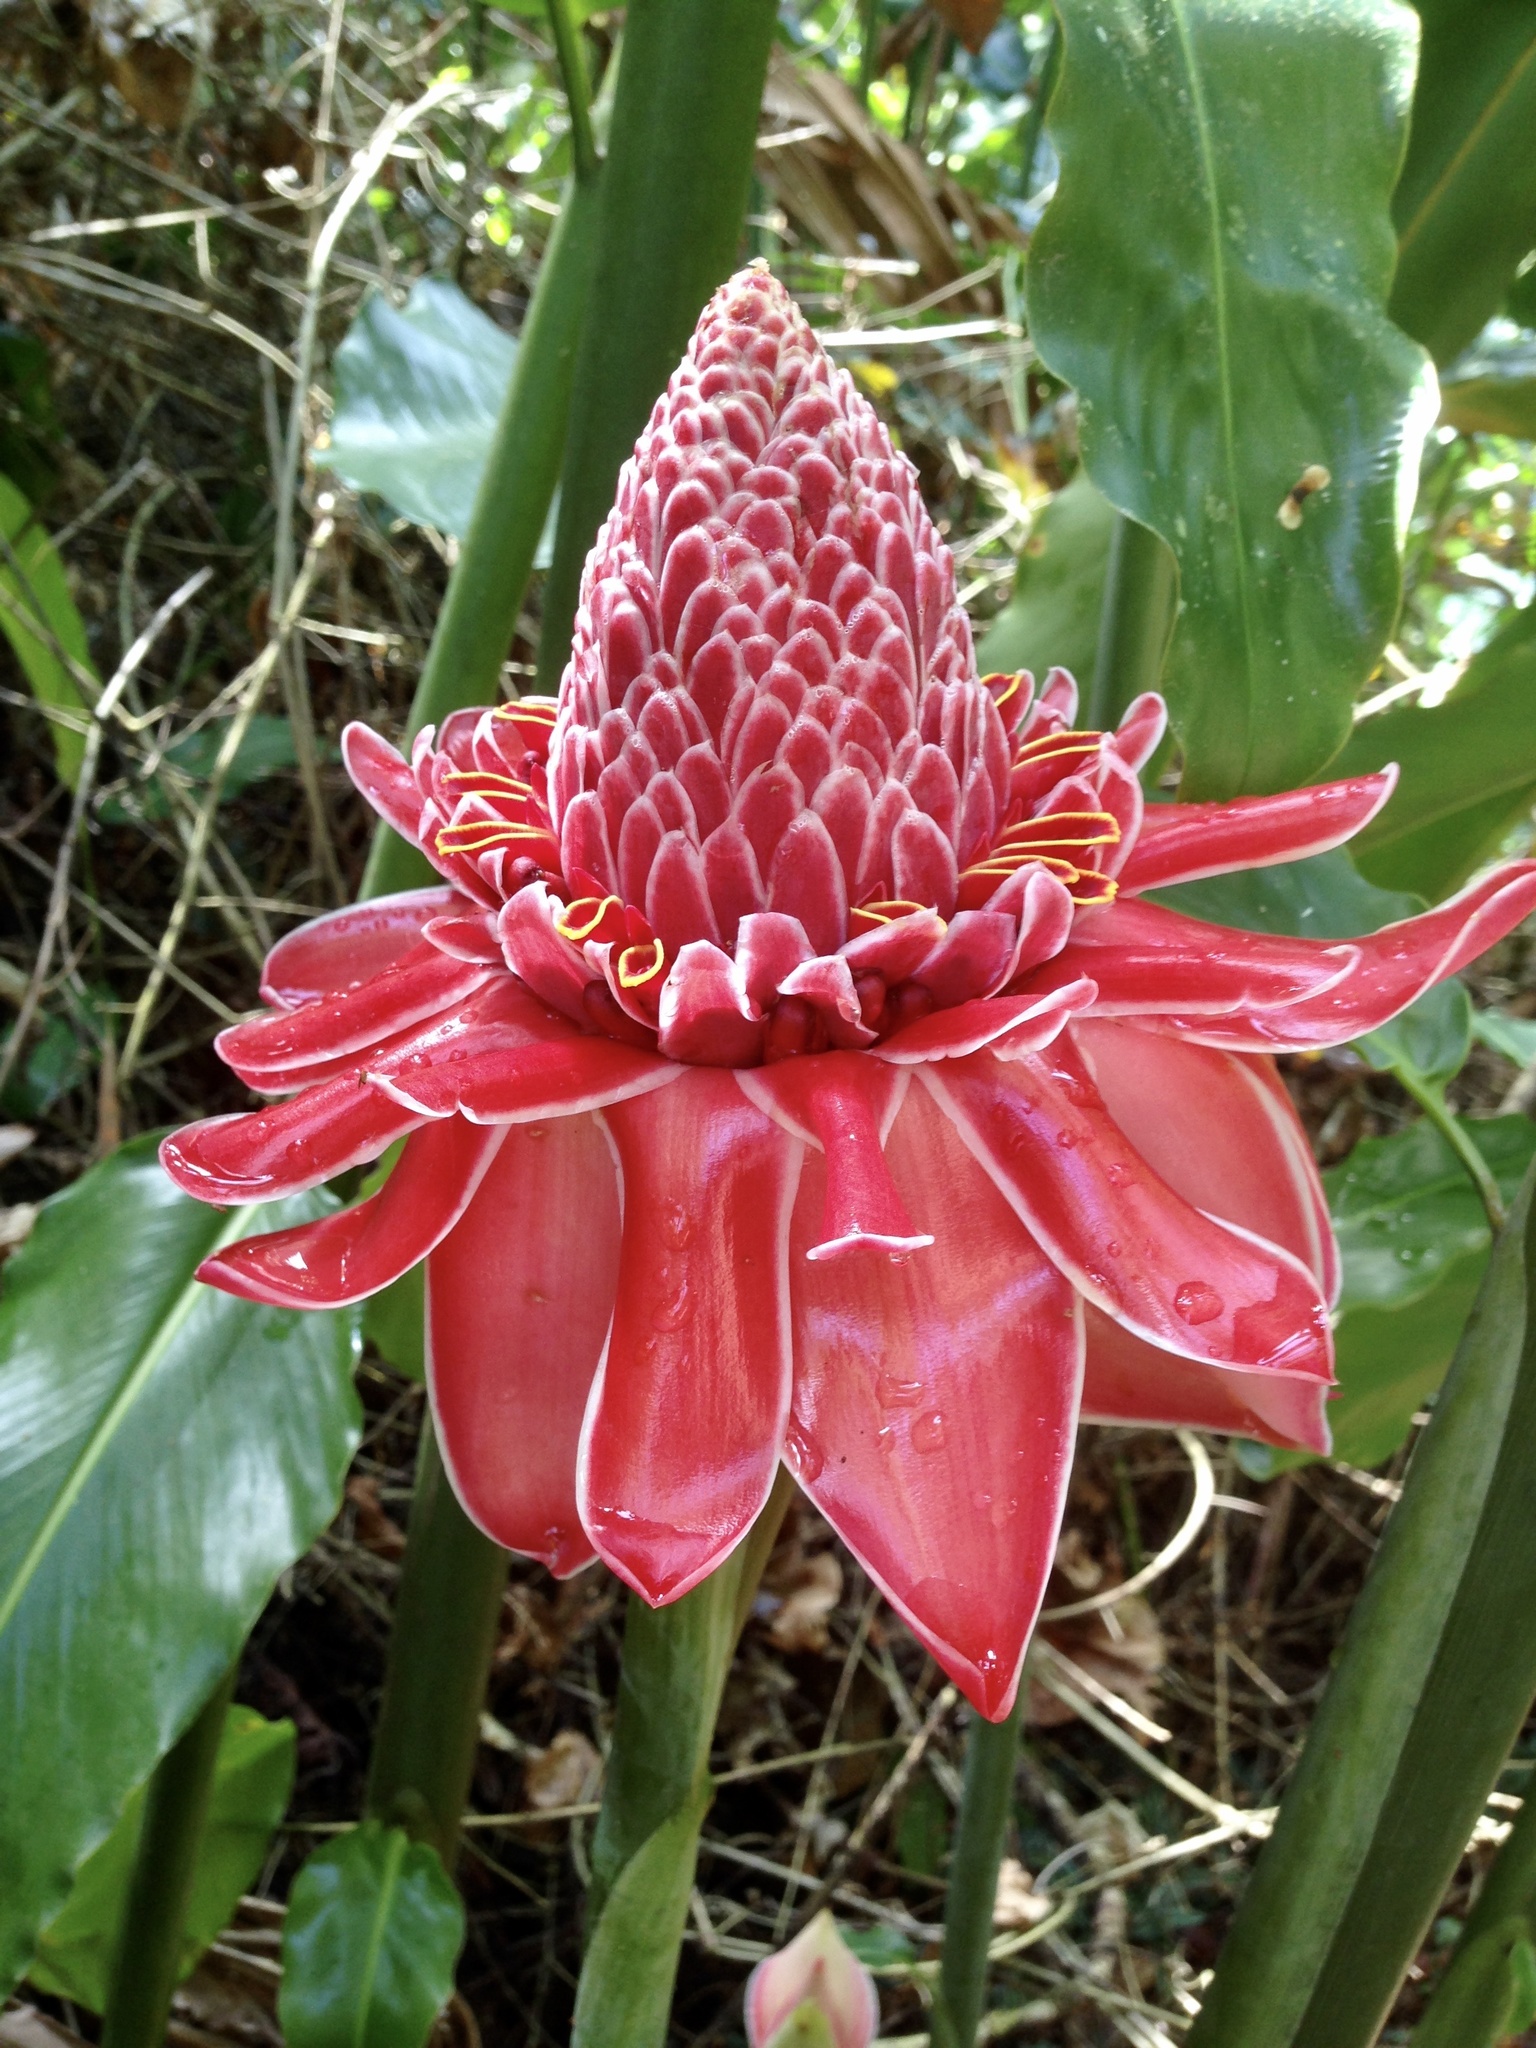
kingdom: Plantae
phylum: Tracheophyta
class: Liliopsida
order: Zingiberales
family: Zingiberaceae
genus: Etlingera
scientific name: Etlingera elatior
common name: Philippine waxflower
